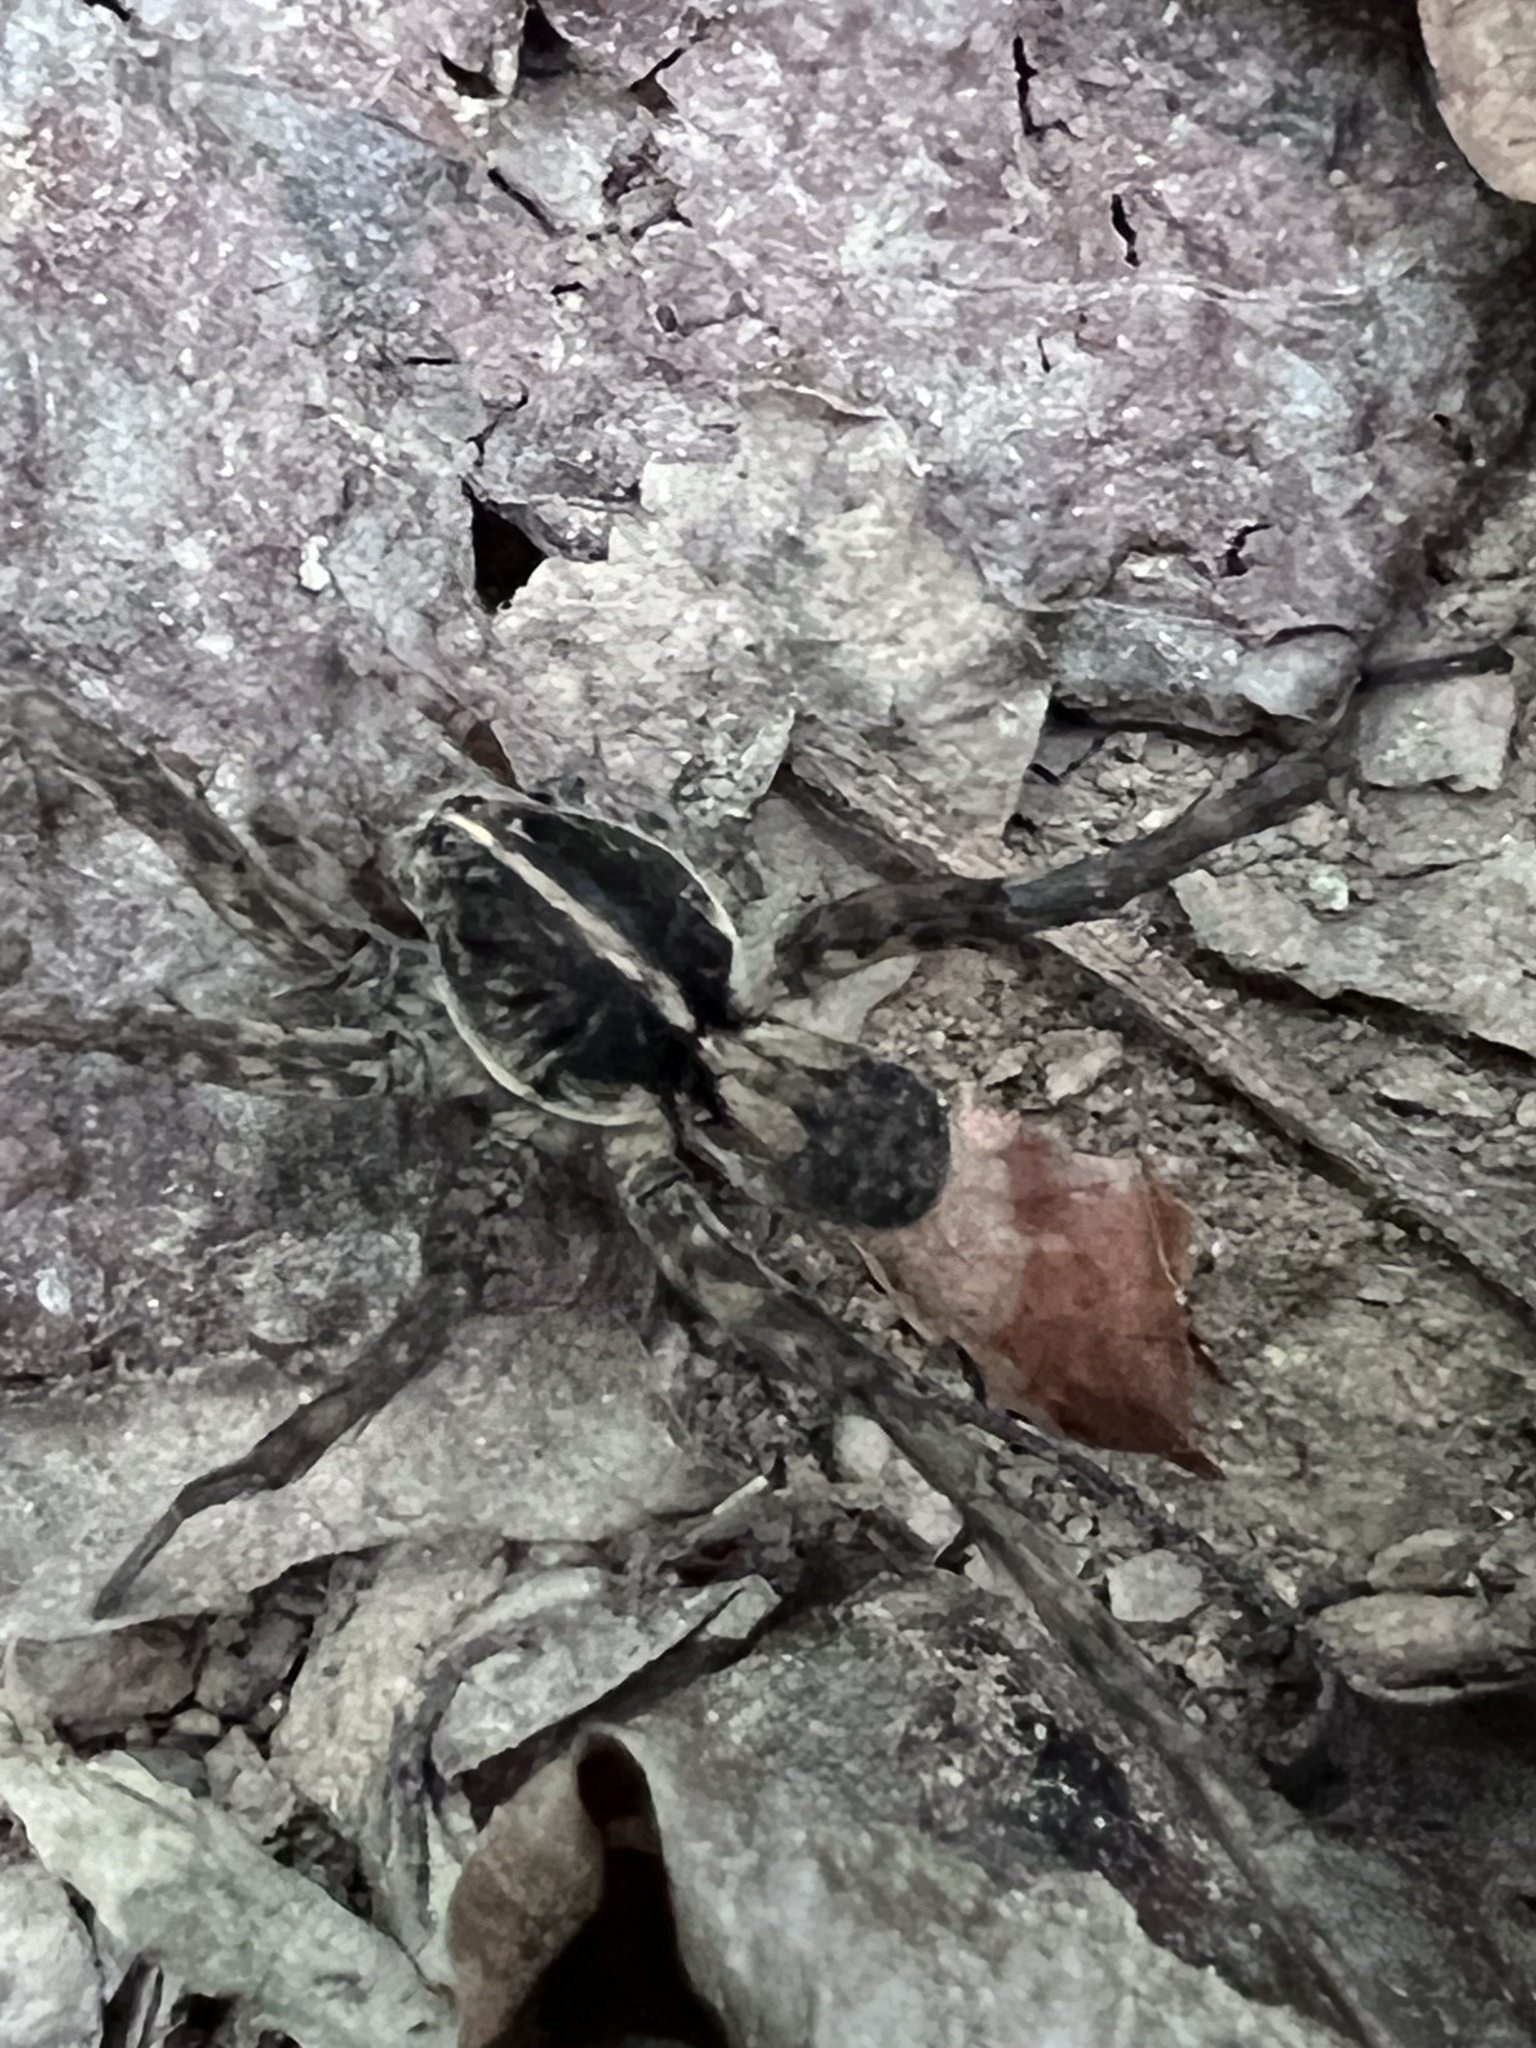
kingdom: Animalia
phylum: Arthropoda
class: Arachnida
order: Araneae
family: Lycosidae
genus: Tigrosa
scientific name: Tigrosa georgicola
